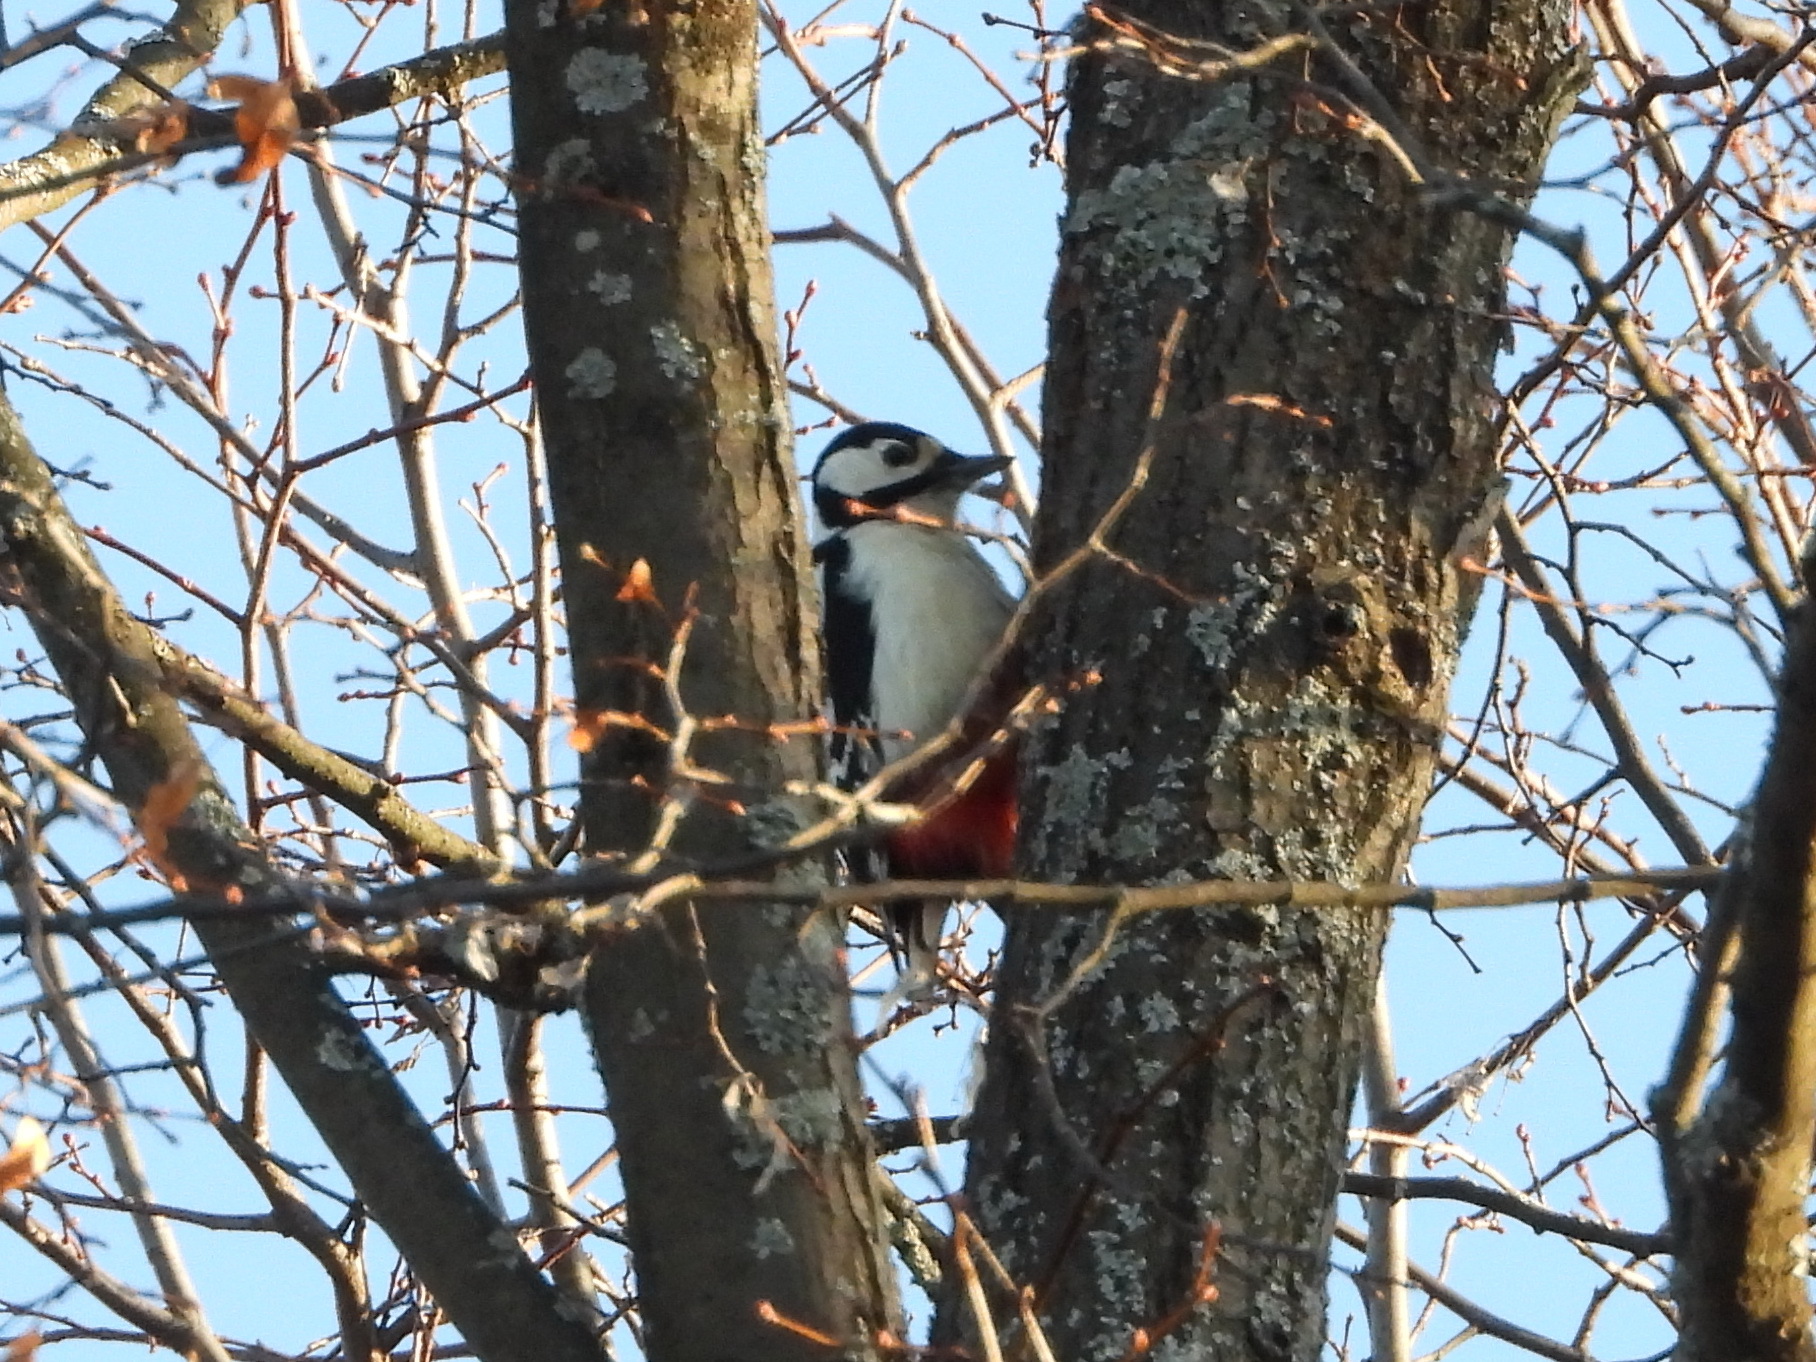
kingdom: Animalia
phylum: Chordata
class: Aves
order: Piciformes
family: Picidae
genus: Dendrocopos
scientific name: Dendrocopos major
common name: Great spotted woodpecker
